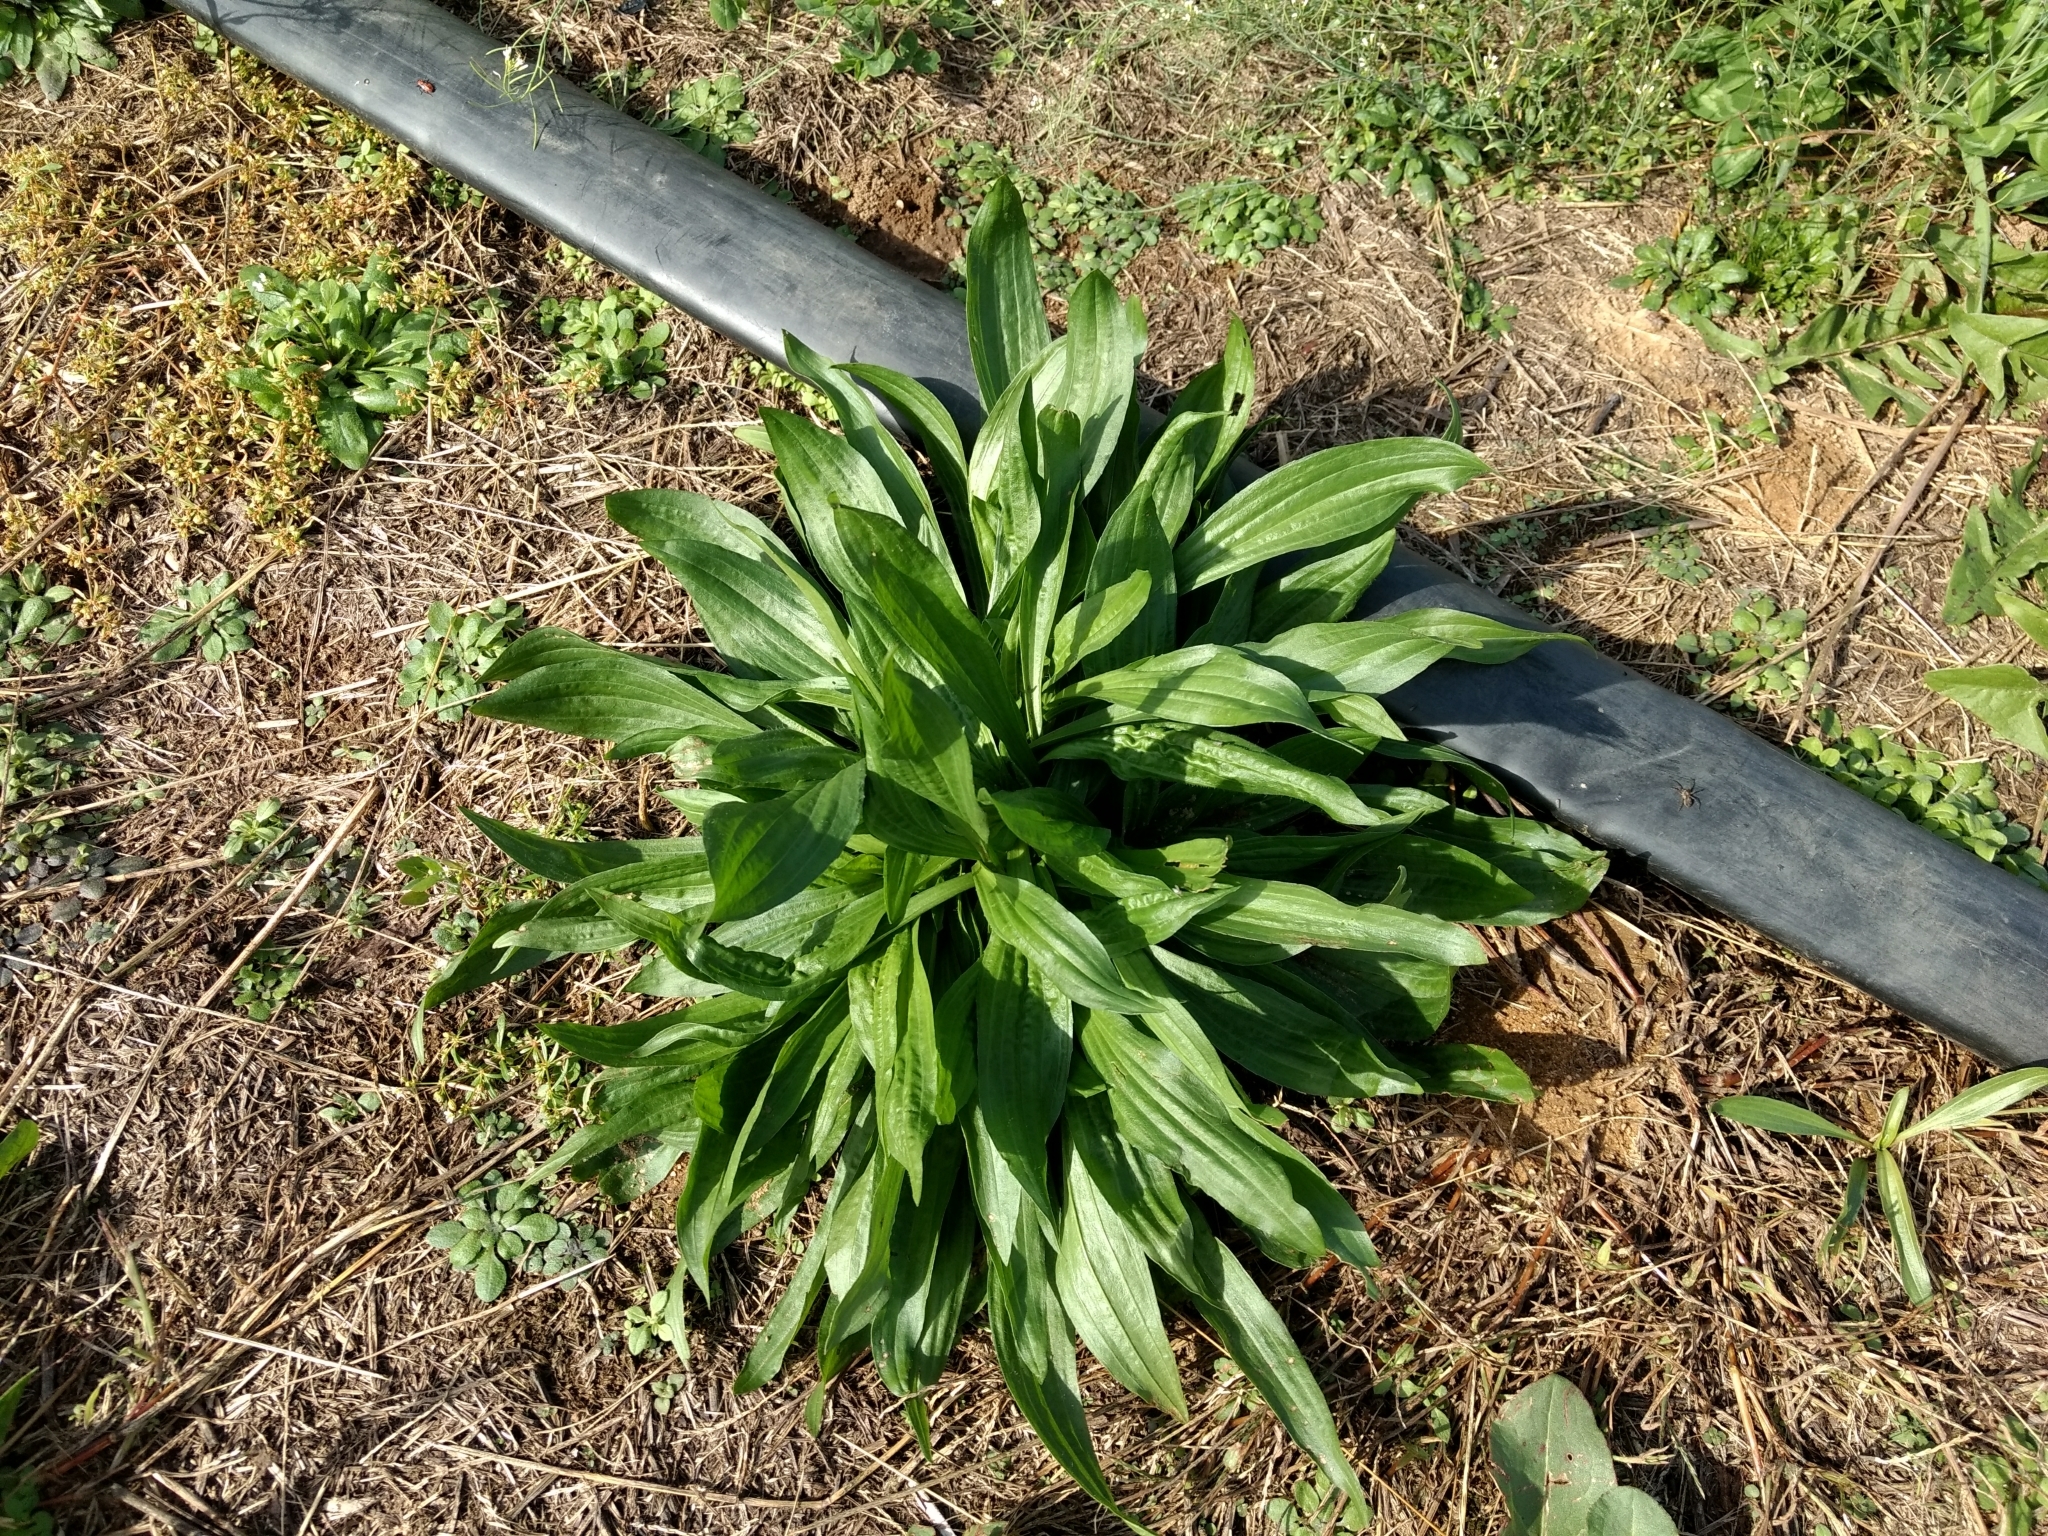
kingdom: Plantae
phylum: Tracheophyta
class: Magnoliopsida
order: Lamiales
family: Plantaginaceae
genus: Plantago
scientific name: Plantago lanceolata
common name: Ribwort plantain
